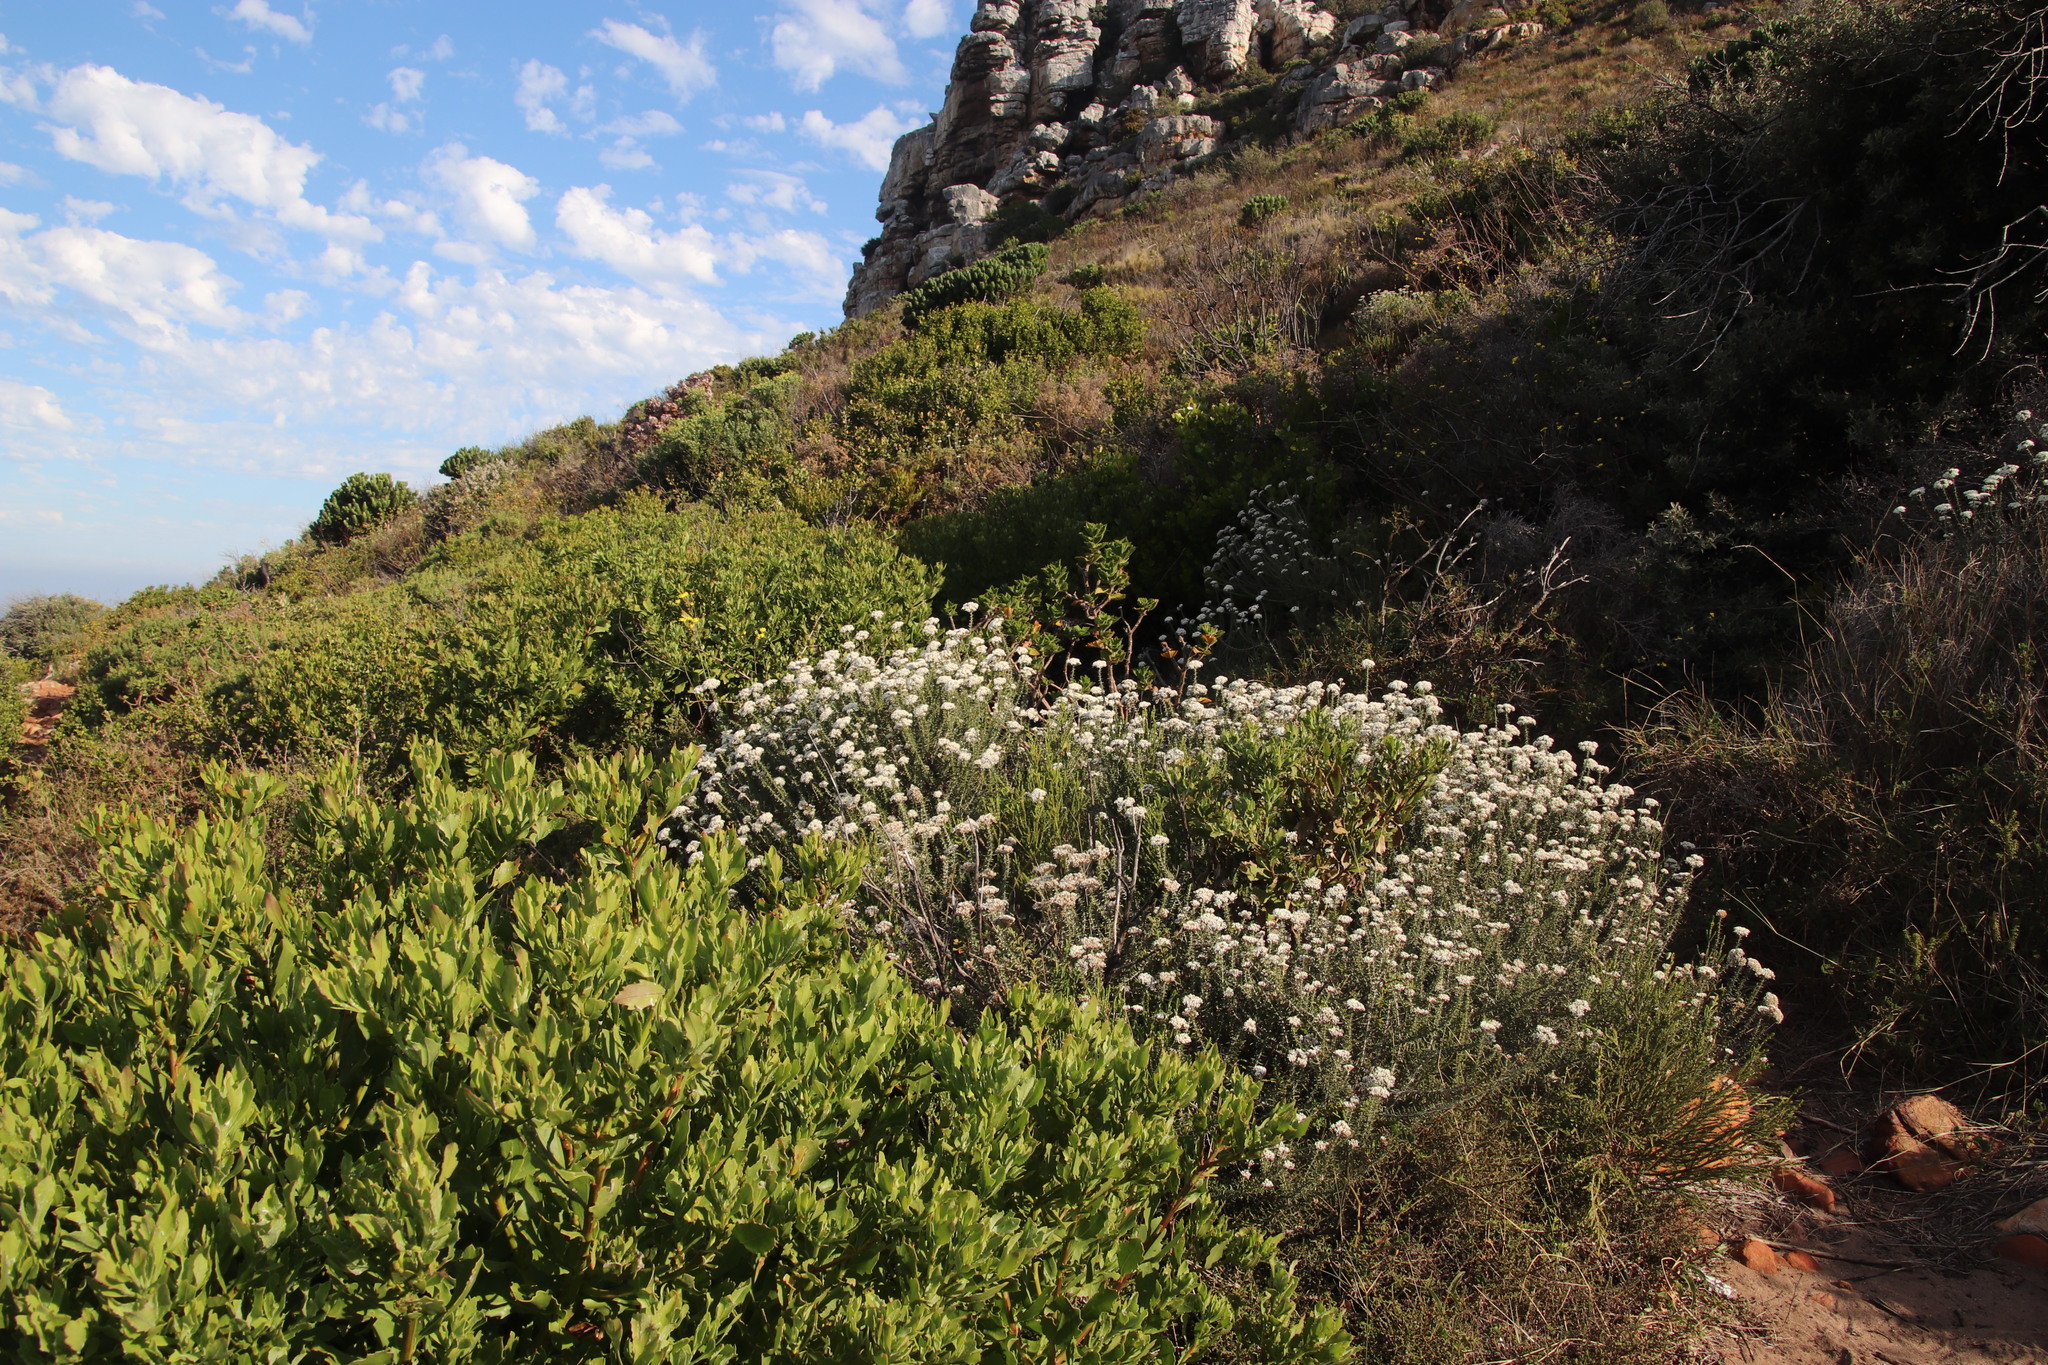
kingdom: Plantae
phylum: Tracheophyta
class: Magnoliopsida
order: Asterales
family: Asteraceae
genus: Metalasia
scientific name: Metalasia densa
